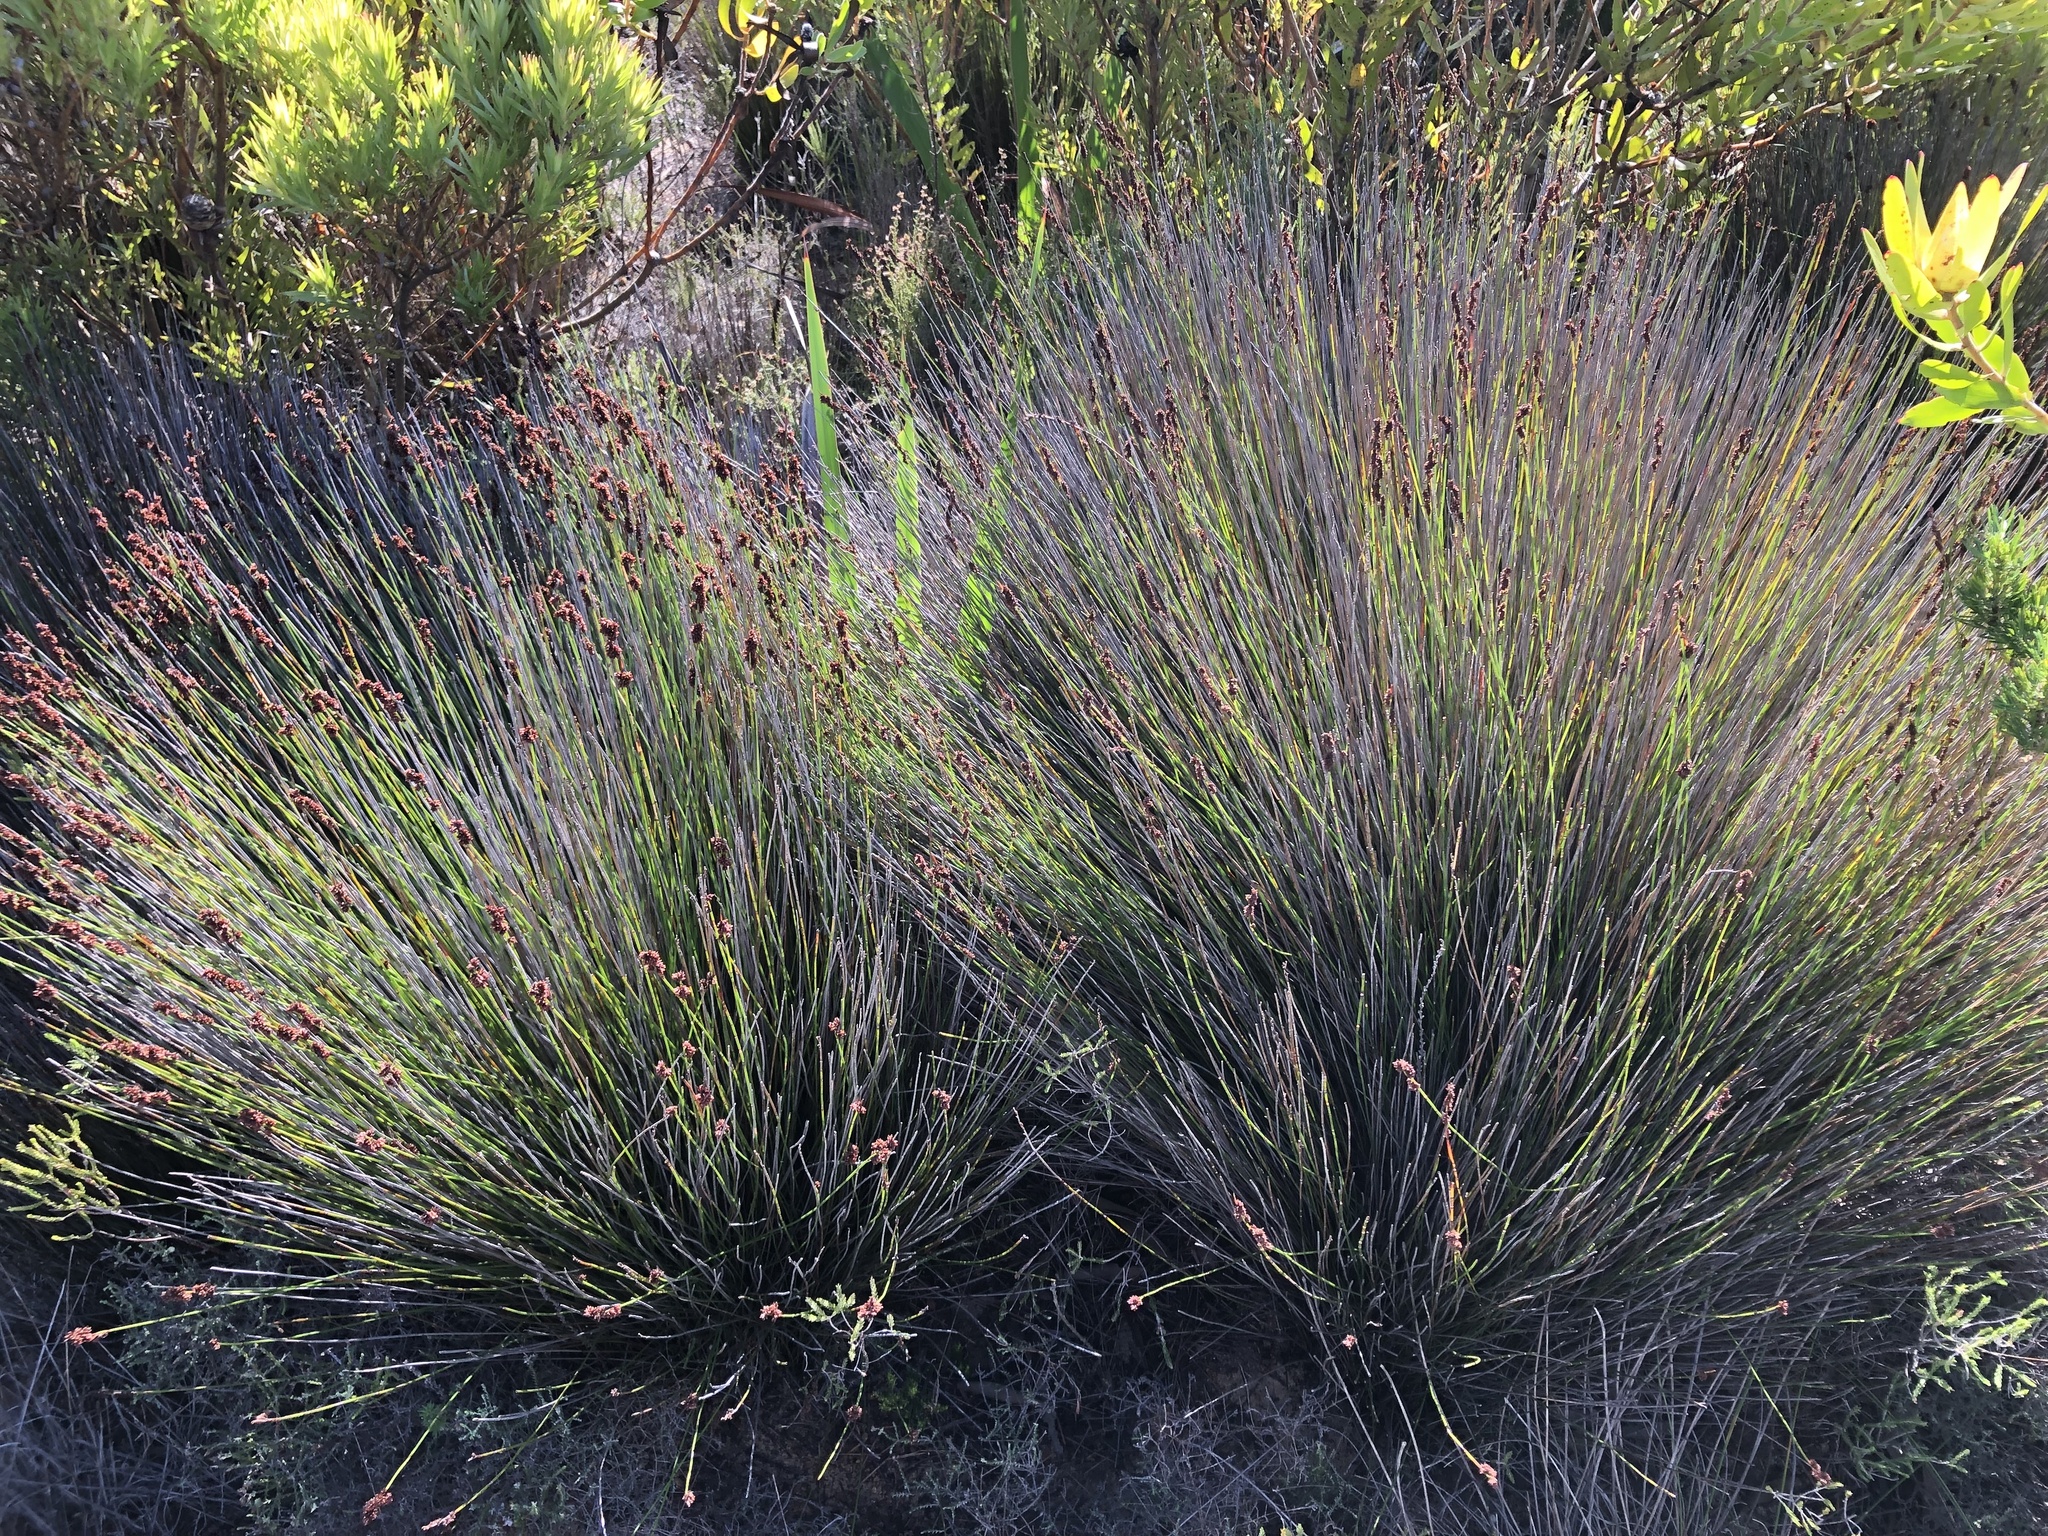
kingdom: Plantae
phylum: Tracheophyta
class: Liliopsida
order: Poales
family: Restionaceae
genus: Elegia
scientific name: Elegia nuda
